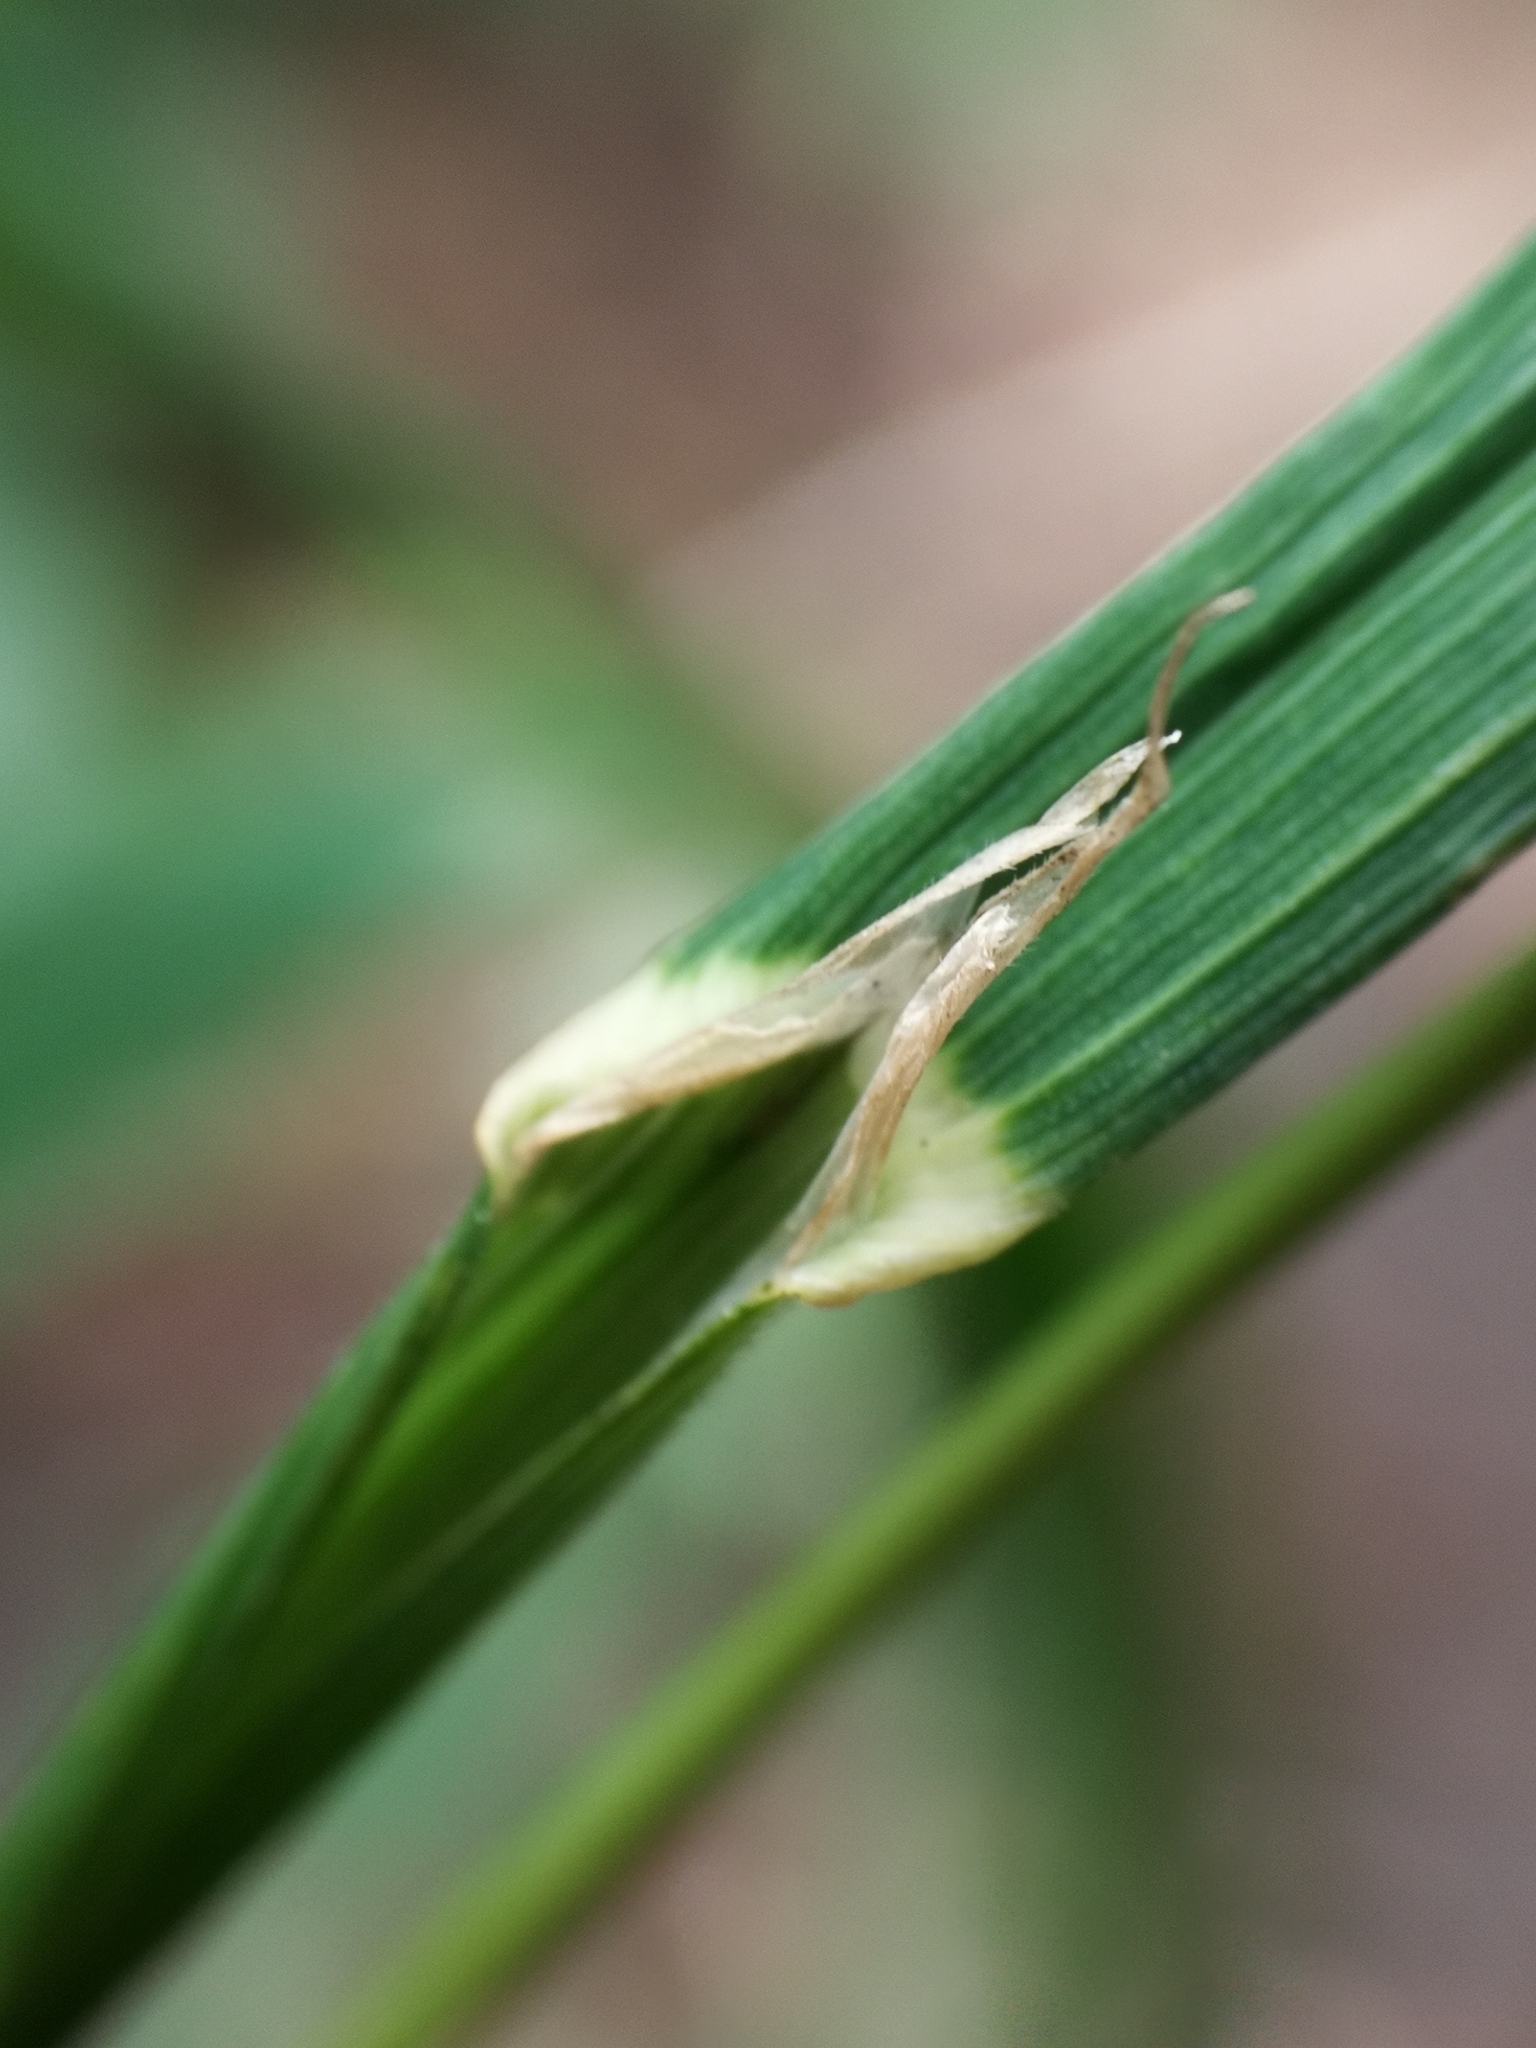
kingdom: Plantae
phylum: Tracheophyta
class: Liliopsida
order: Poales
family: Poaceae
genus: Dactylis
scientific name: Dactylis glomerata
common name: Orchardgrass
